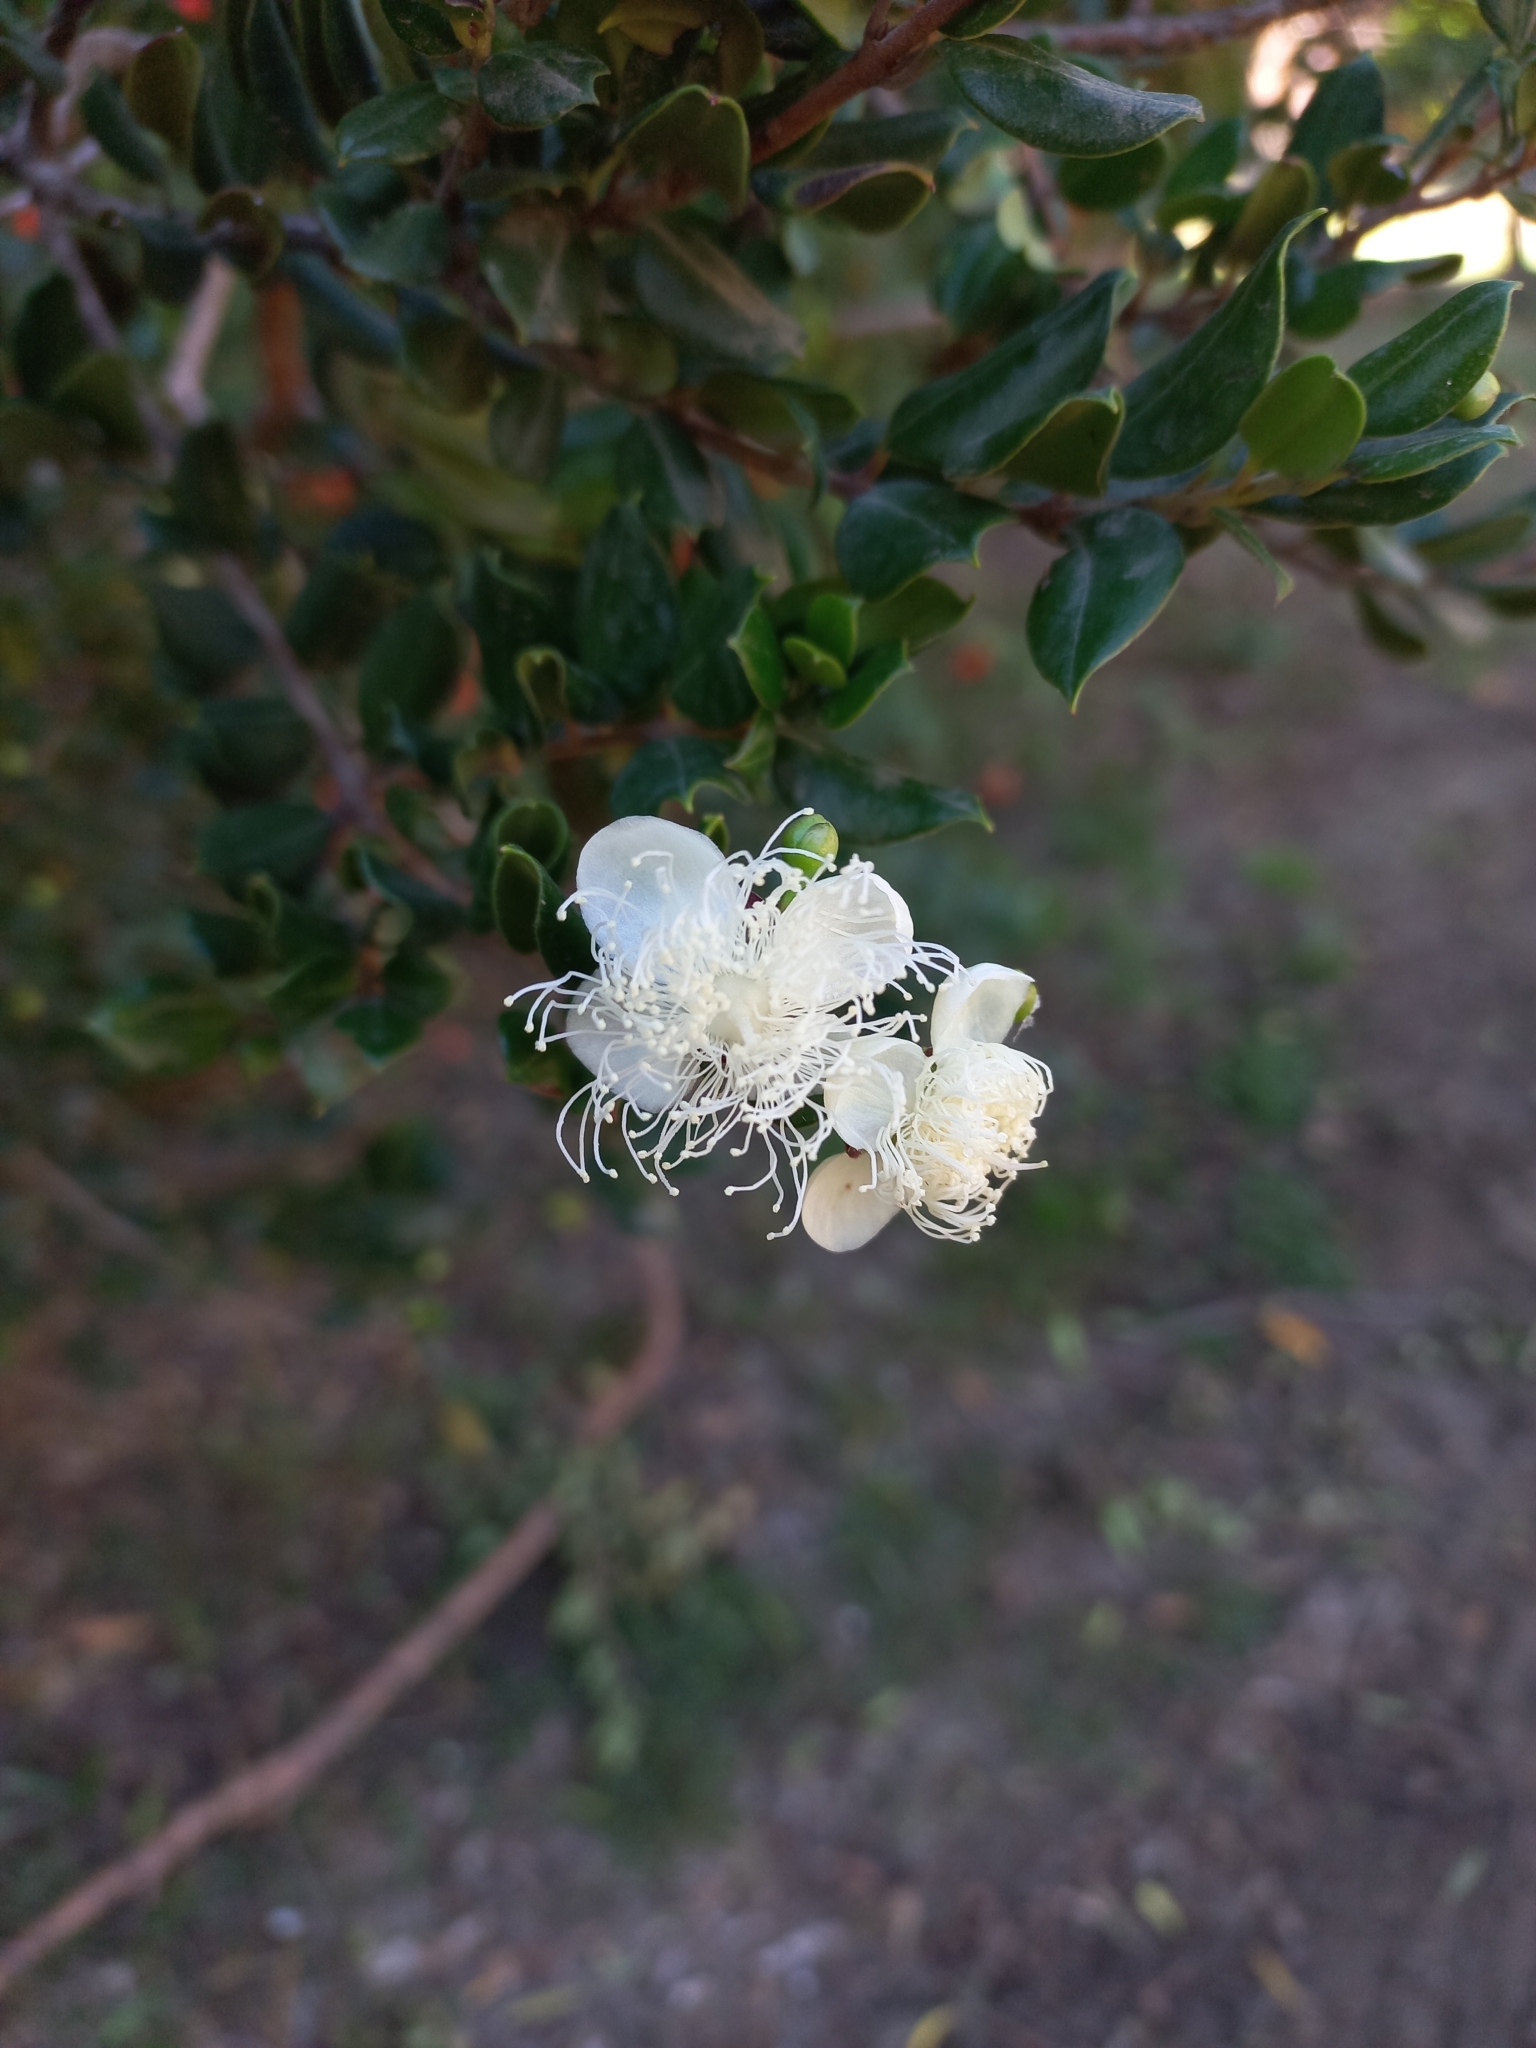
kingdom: Plantae
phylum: Tracheophyta
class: Magnoliopsida
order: Myrtales
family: Myrtaceae
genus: Luma
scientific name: Luma apiculata
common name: Chilean myrtle
